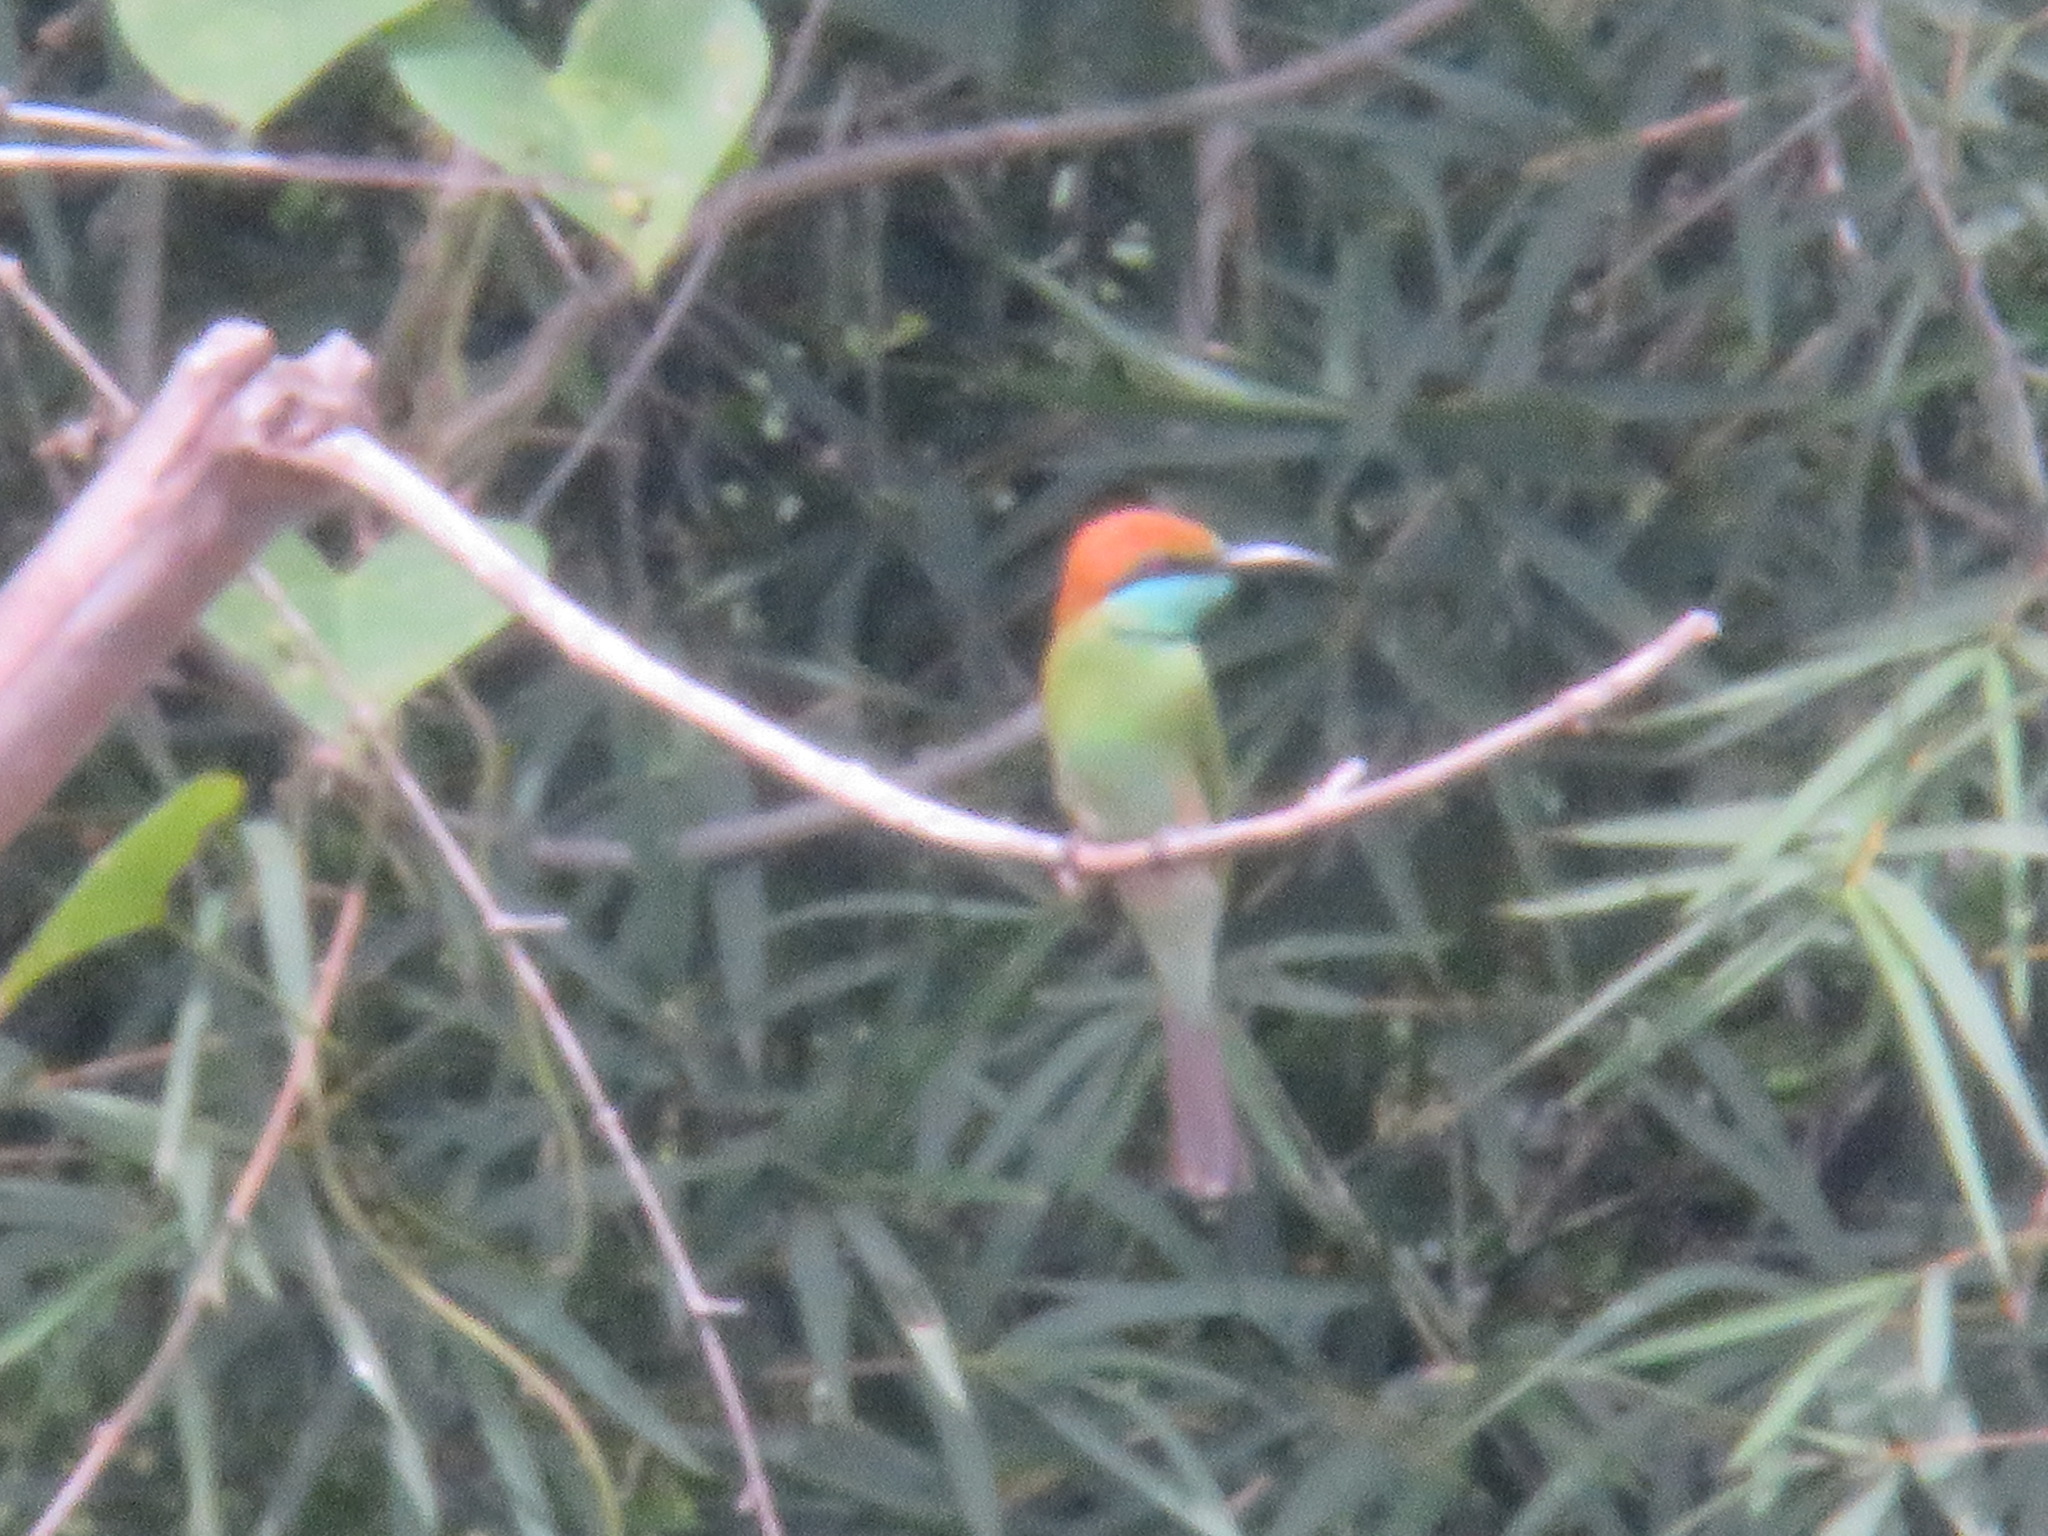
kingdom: Animalia
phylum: Chordata
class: Aves
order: Coraciiformes
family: Meropidae
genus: Merops
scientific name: Merops orientalis
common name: Green bee-eater
